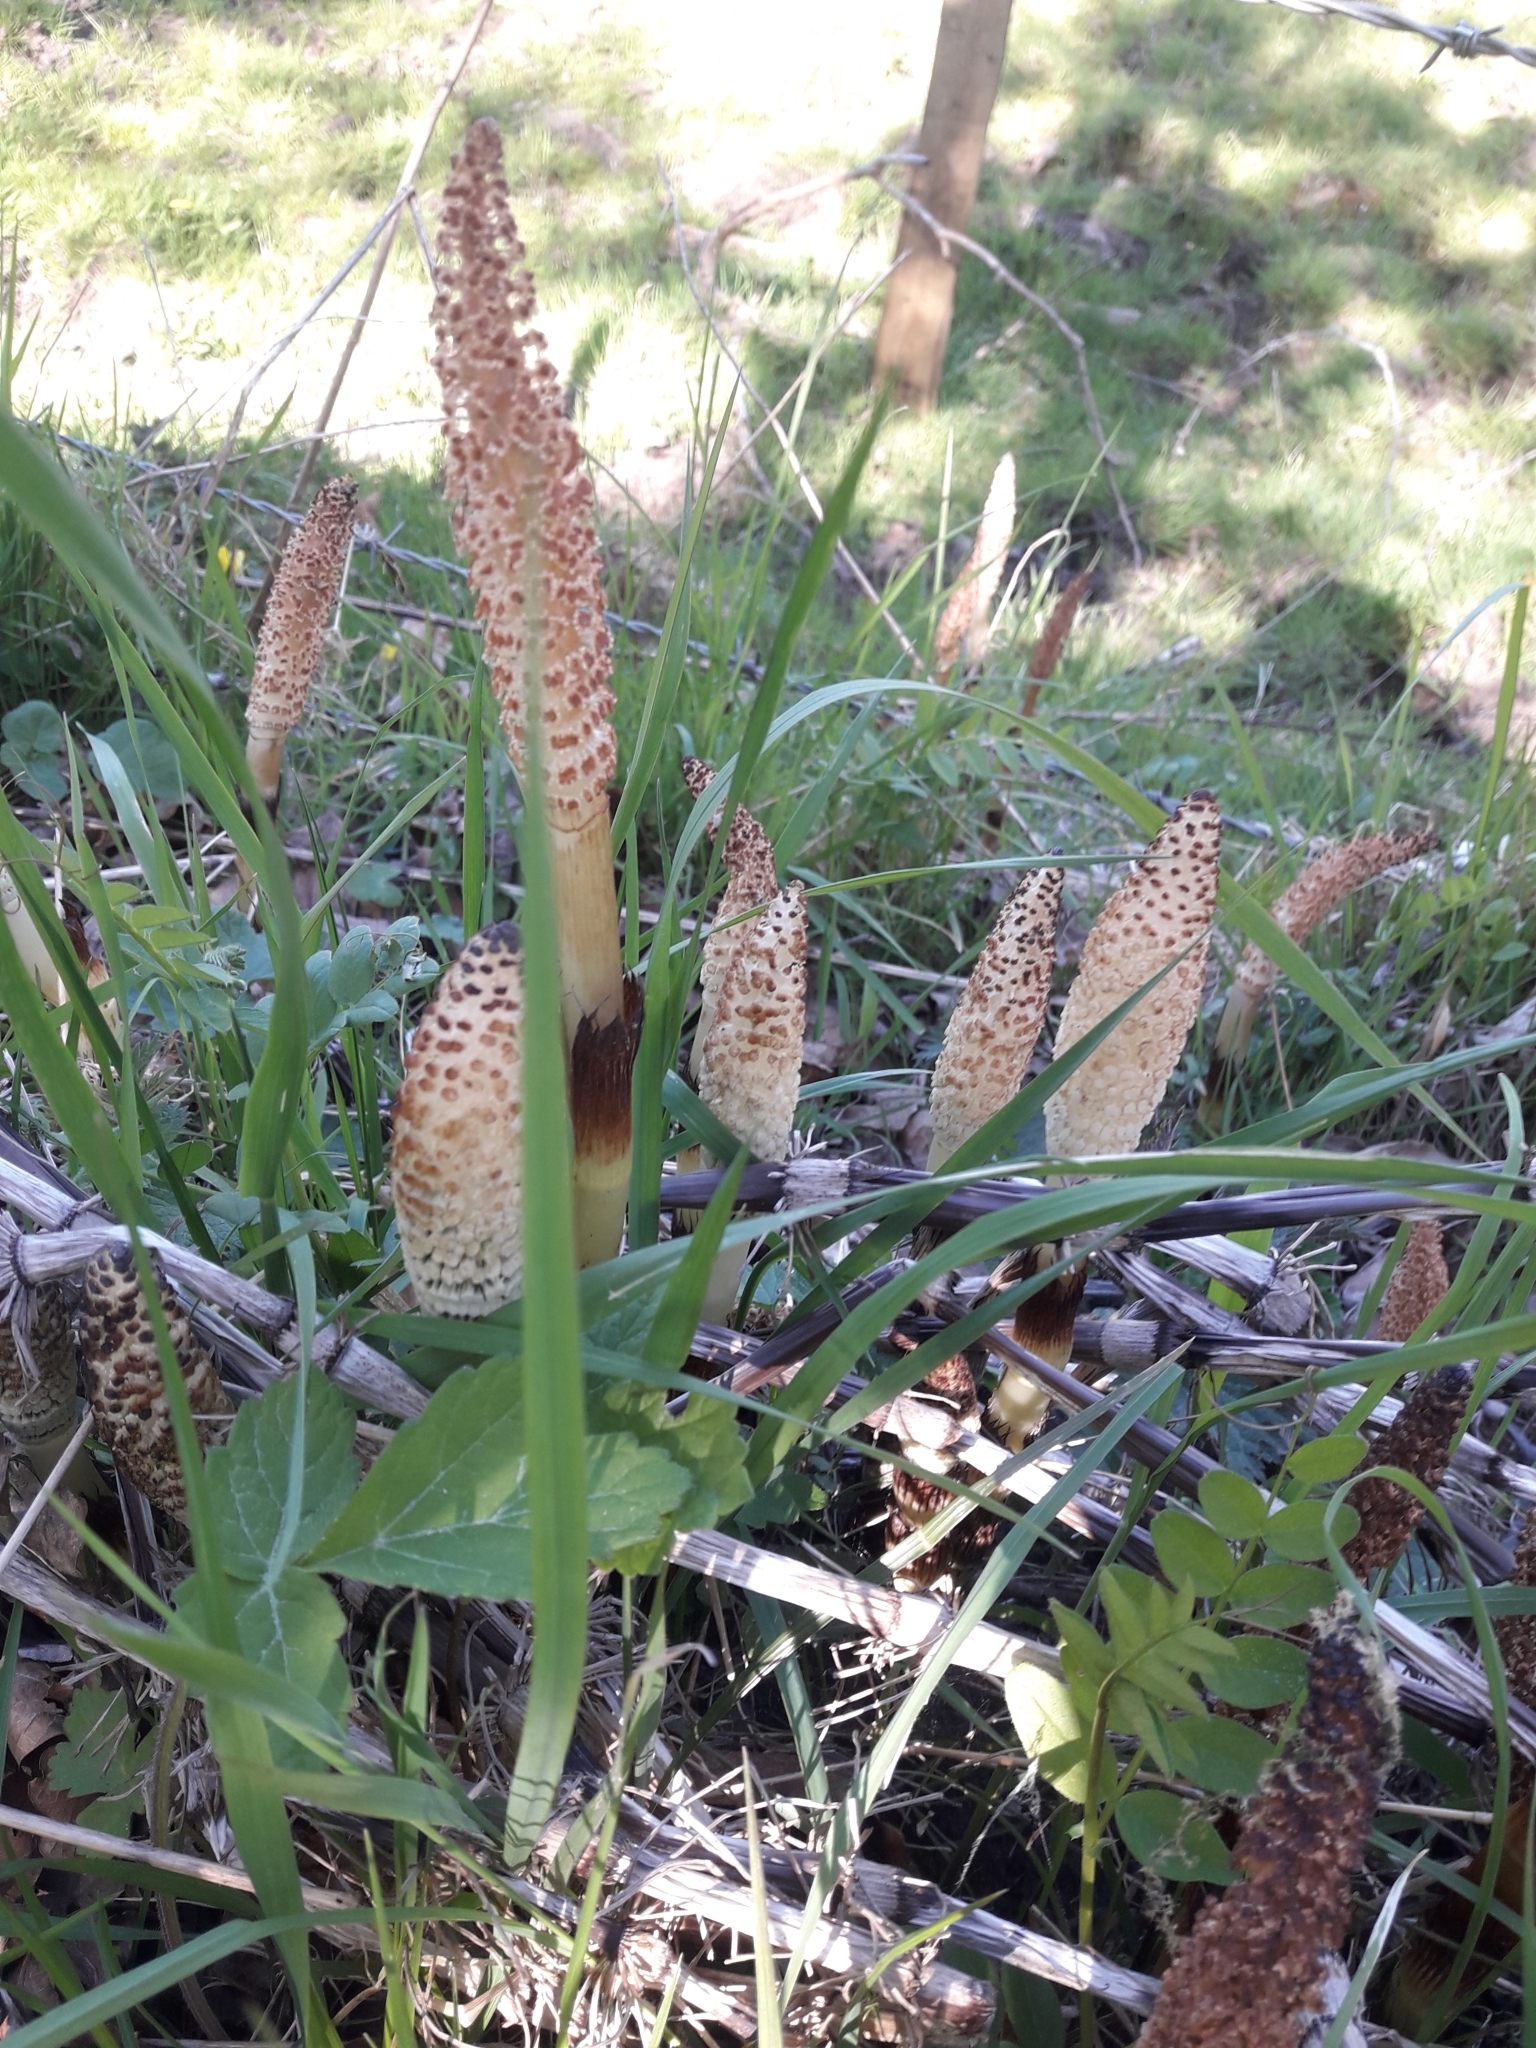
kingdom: Plantae
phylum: Tracheophyta
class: Polypodiopsida
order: Equisetales
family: Equisetaceae
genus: Equisetum
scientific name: Equisetum telmateia
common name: Great horsetail
